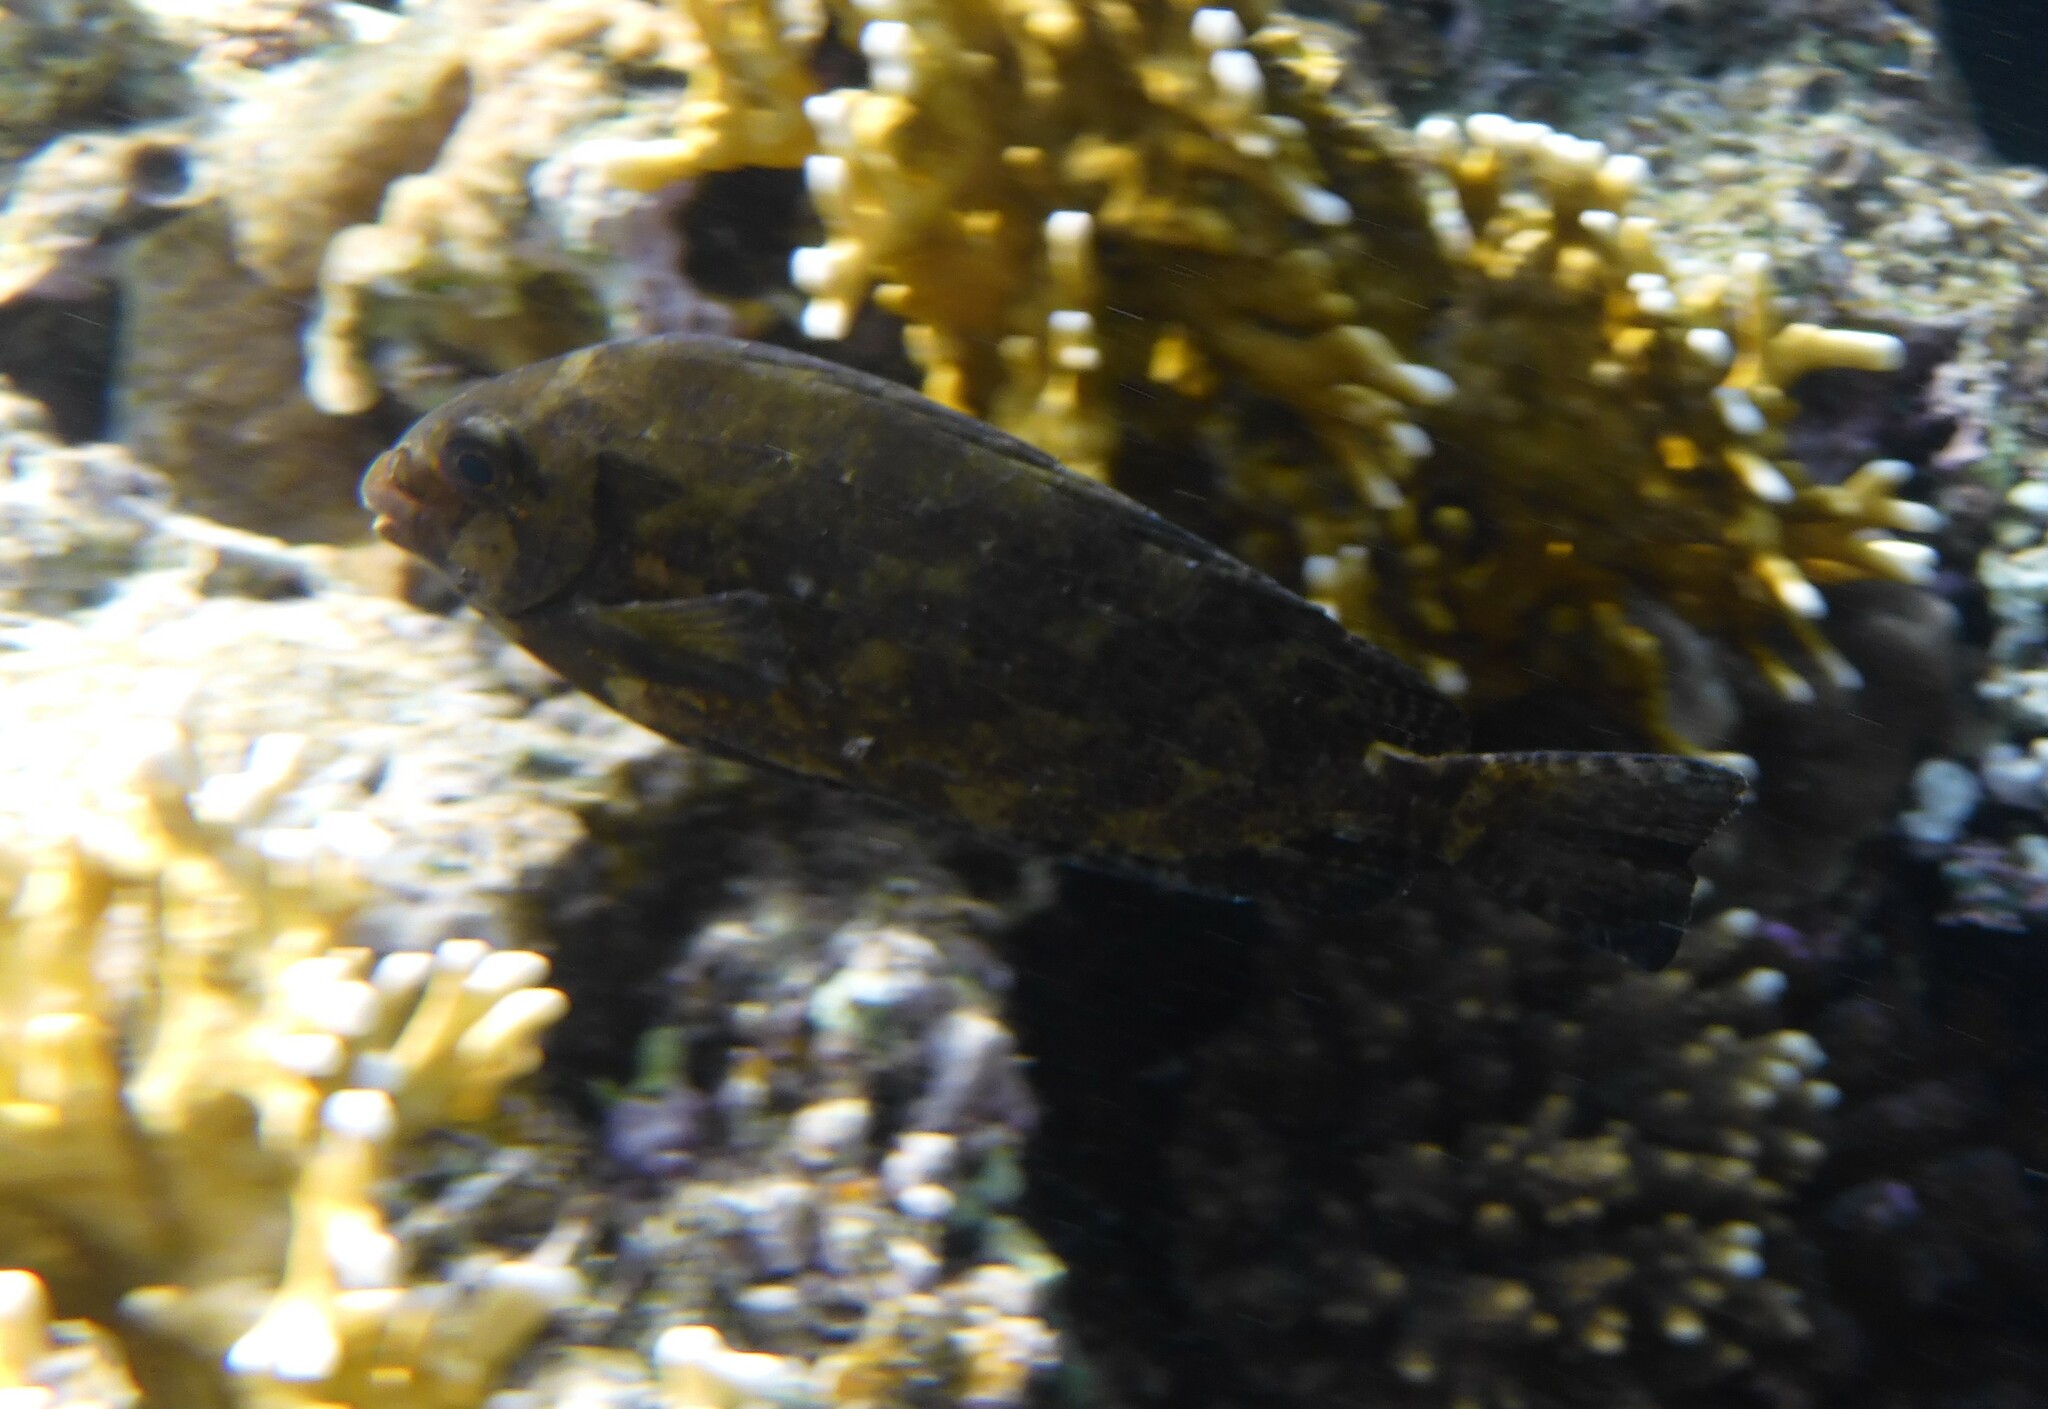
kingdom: Animalia
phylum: Chordata
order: Perciformes
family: Siganidae
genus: Siganus
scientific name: Siganus luridus
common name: Dusky spinefoot
